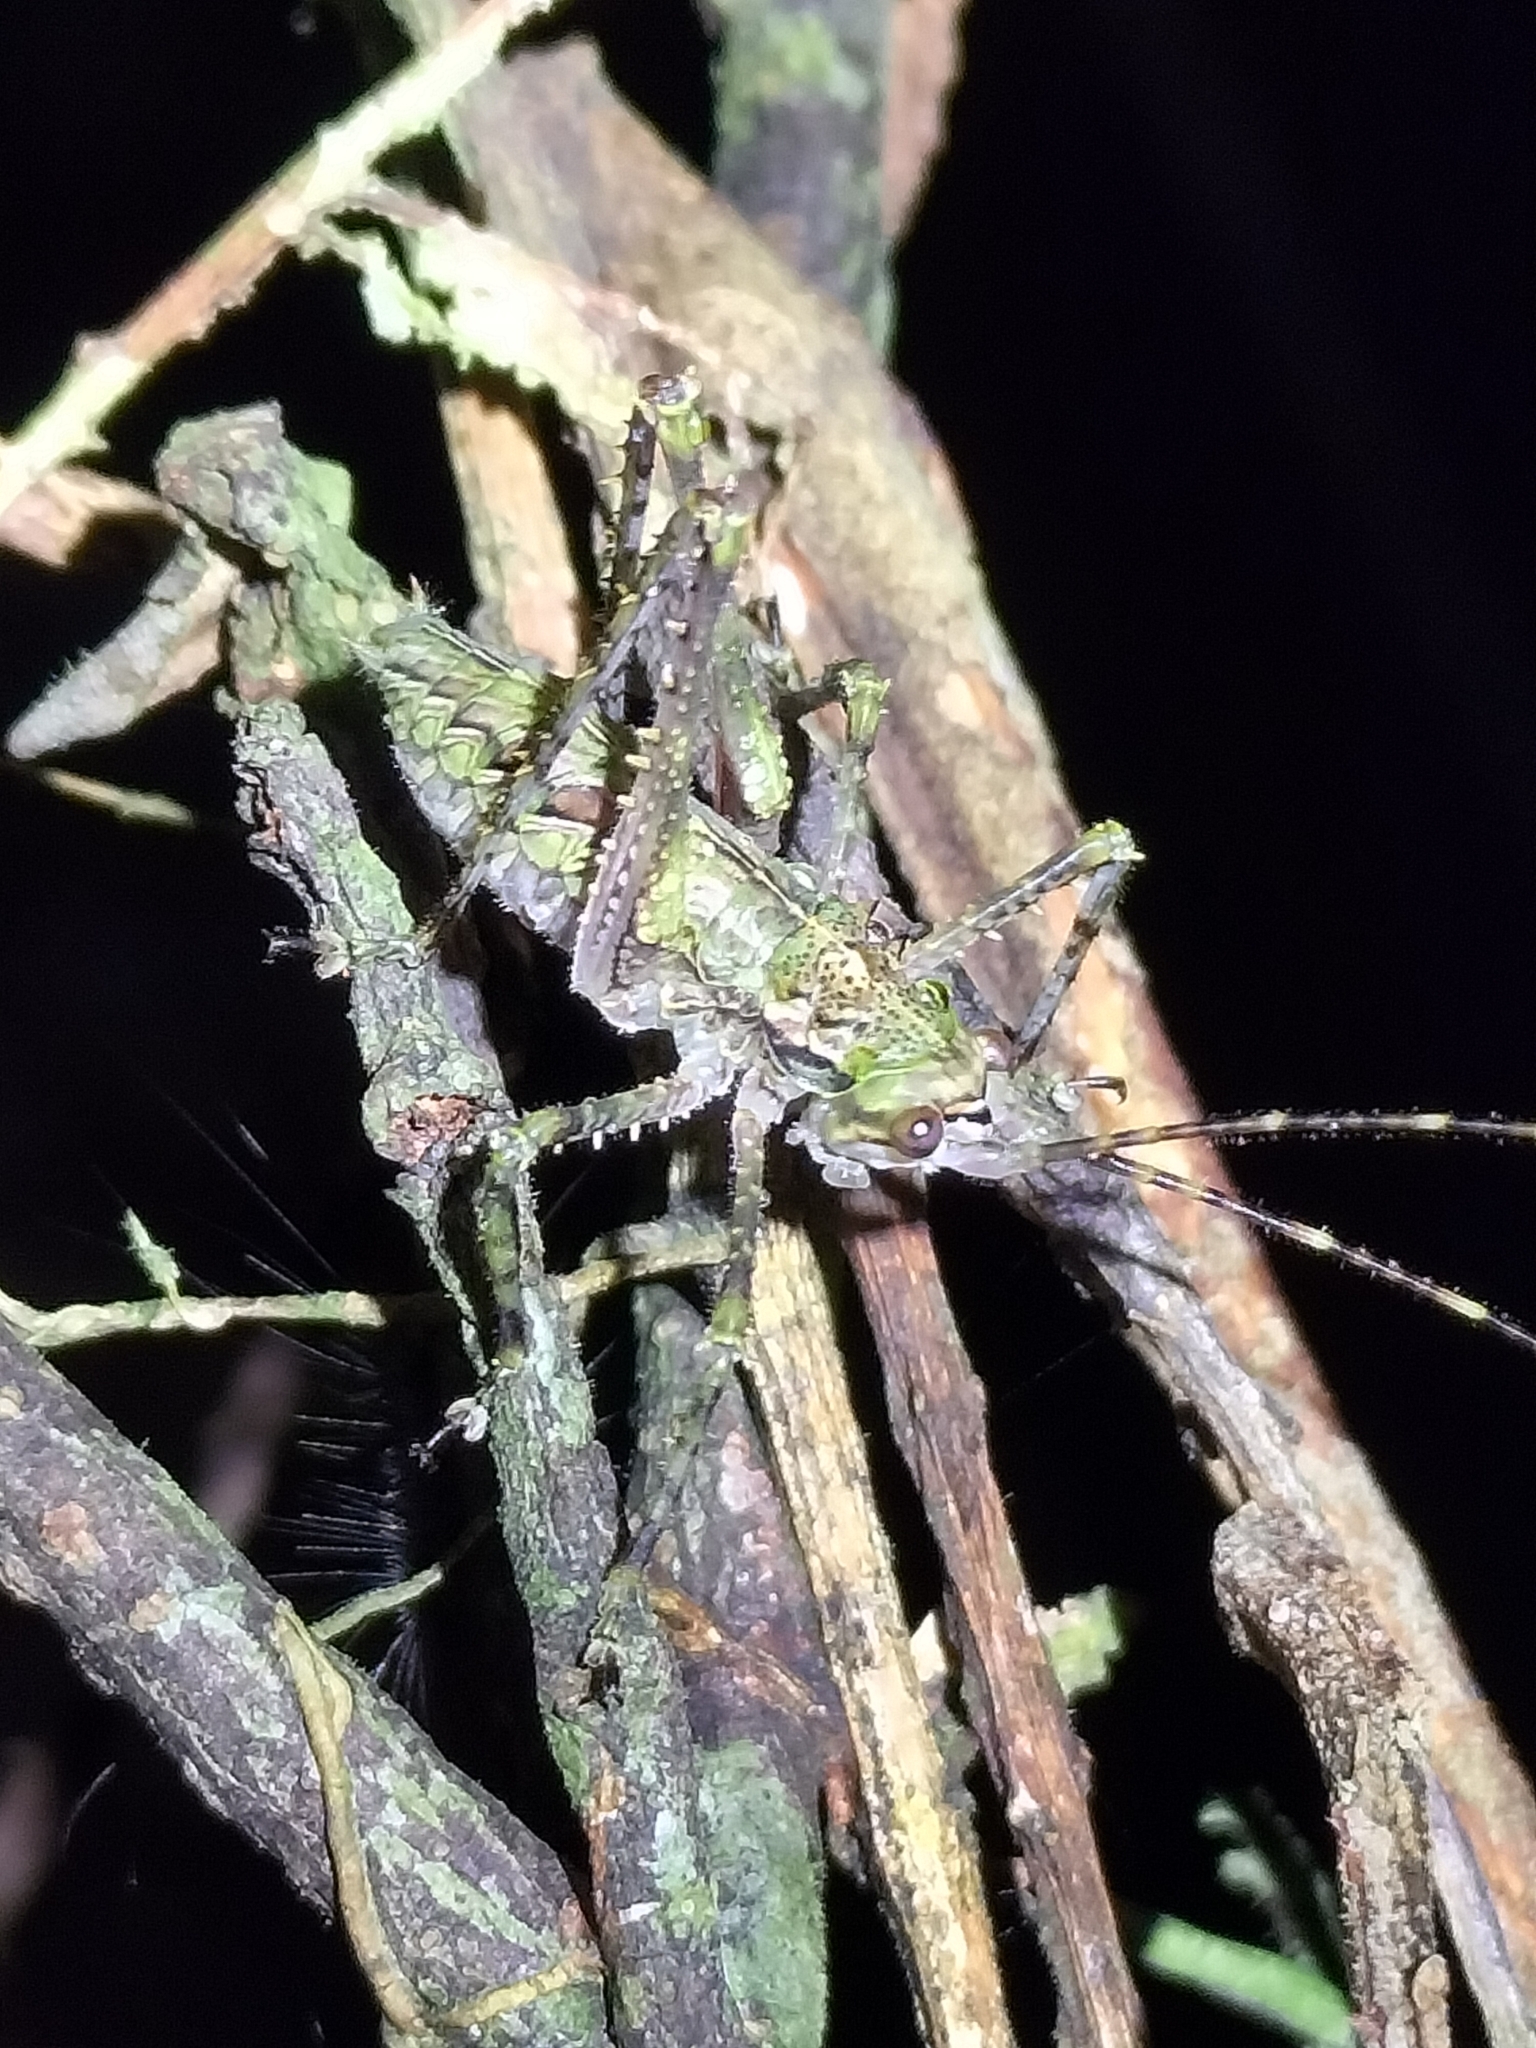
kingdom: Animalia
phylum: Arthropoda
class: Insecta
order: Orthoptera
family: Tettigoniidae
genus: Phricta
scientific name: Phricta spinosa
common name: Giant spiny forest katydid
